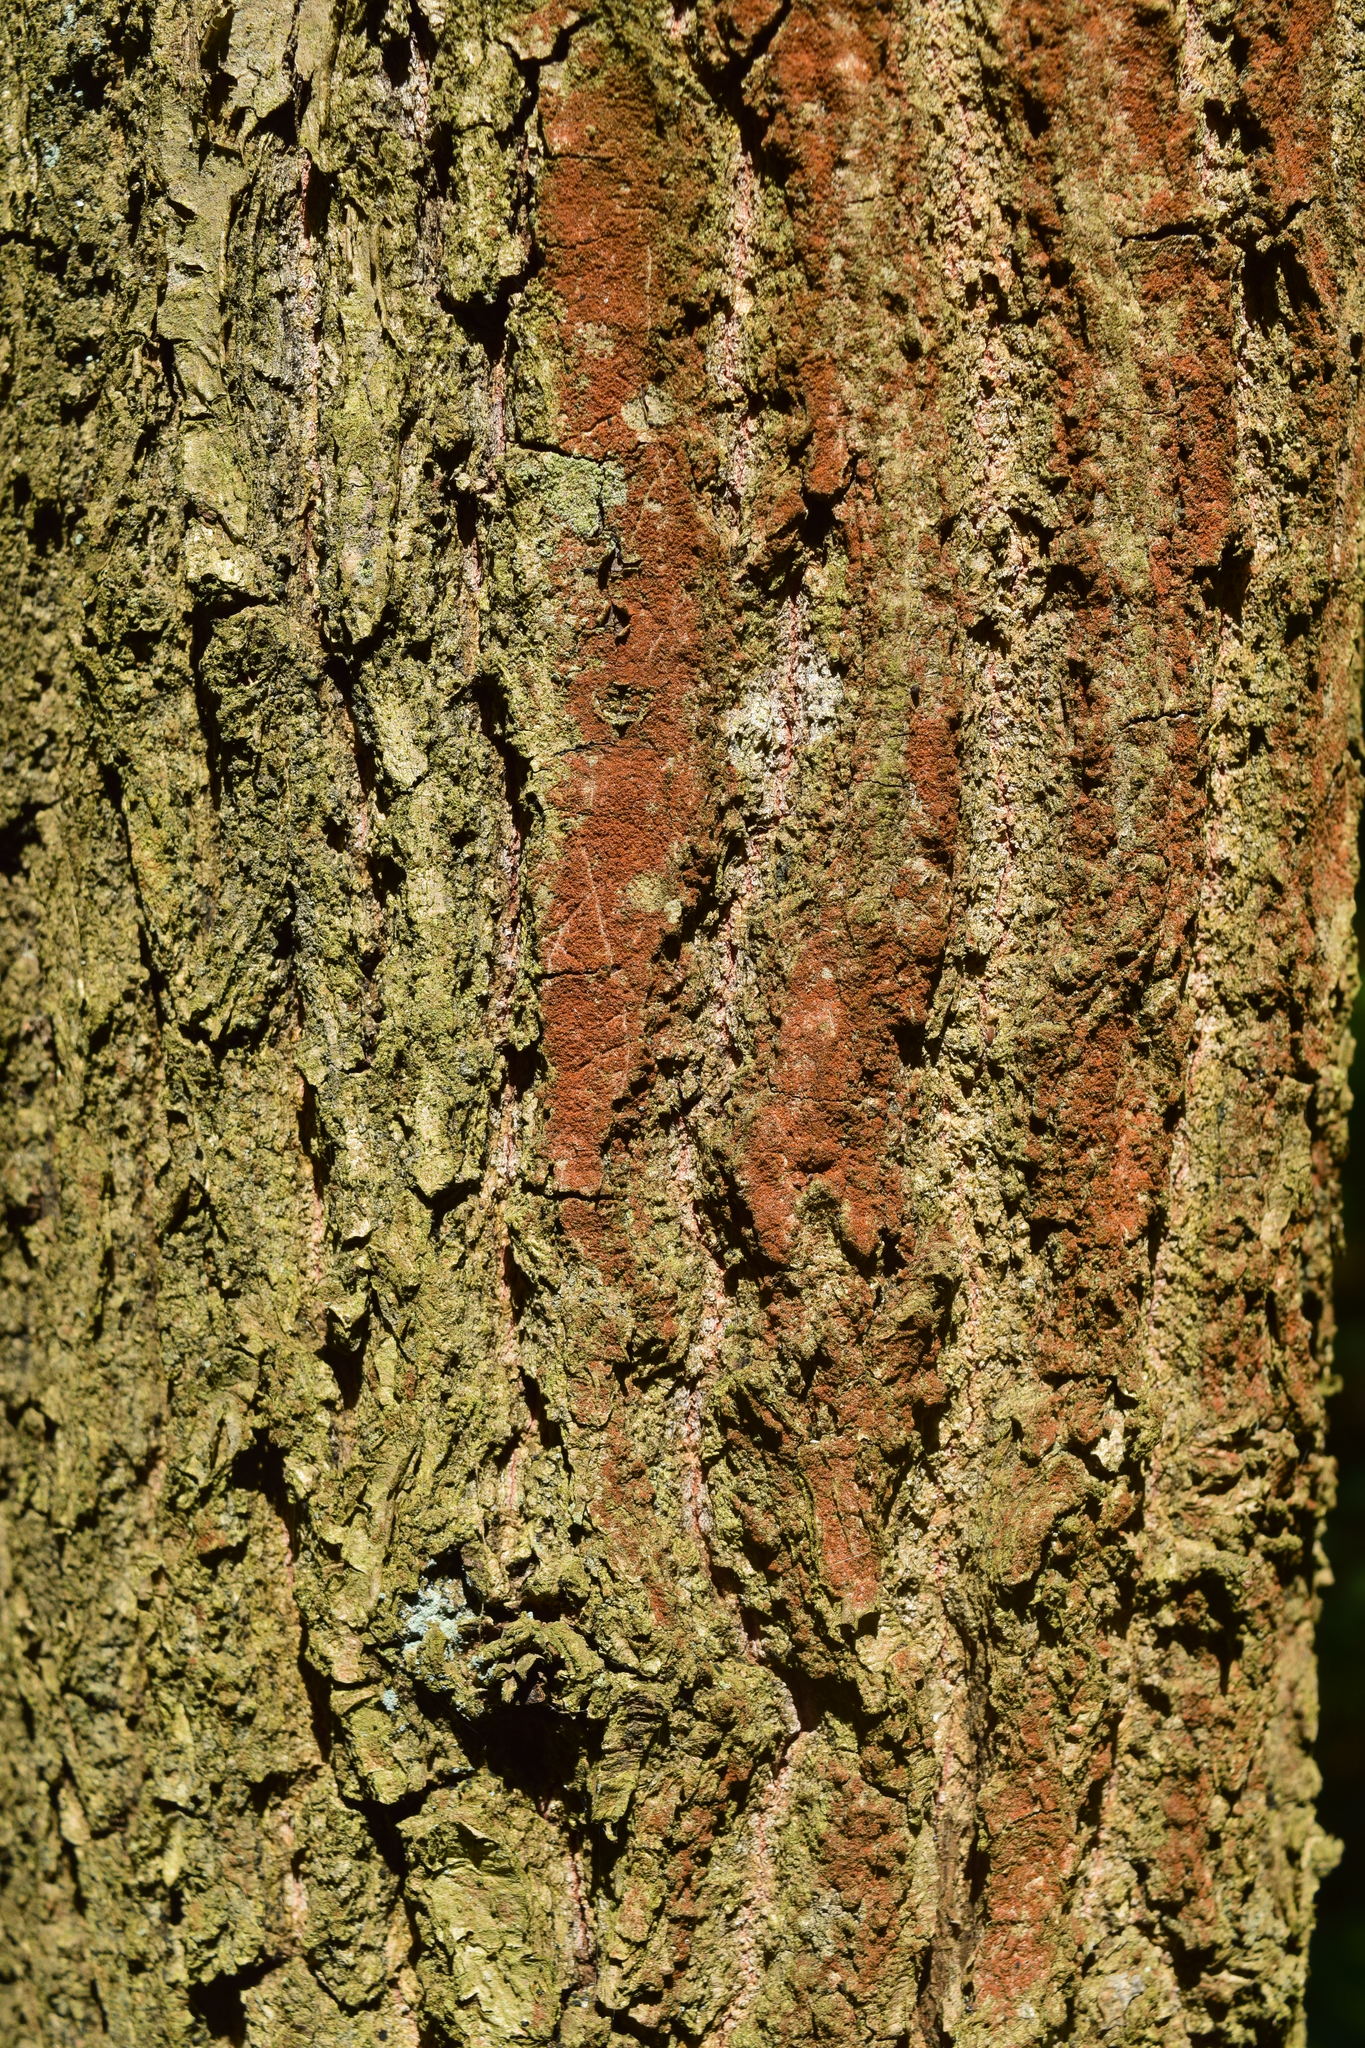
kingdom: Plantae
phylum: Tracheophyta
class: Magnoliopsida
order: Fagales
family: Fagaceae
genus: Quercus
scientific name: Quercus robur
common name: Pedunculate oak
